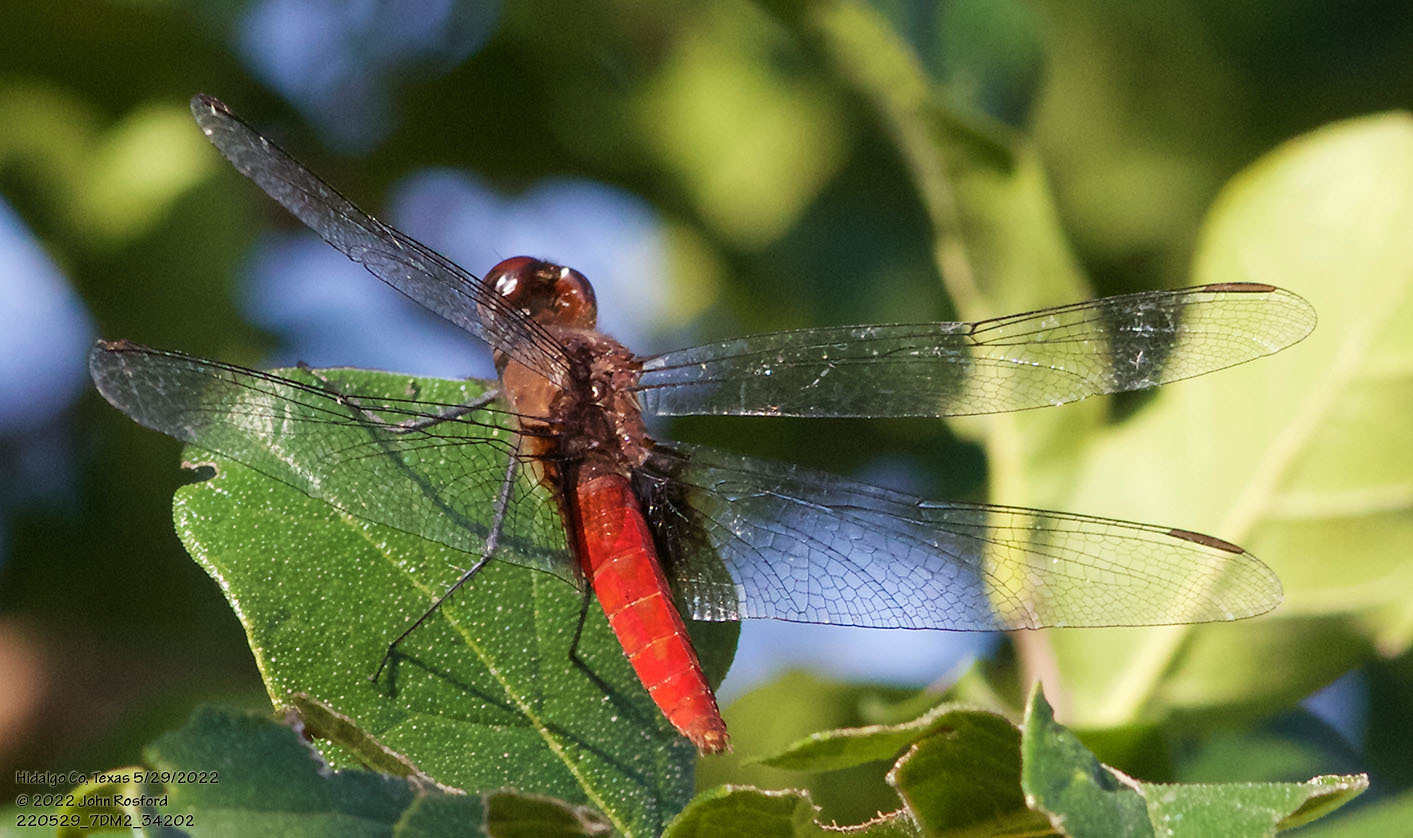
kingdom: Animalia
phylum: Arthropoda
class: Insecta
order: Odonata
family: Libellulidae
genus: Planiplax
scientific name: Planiplax sanguiniventris
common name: Mexican scarlet-tail
